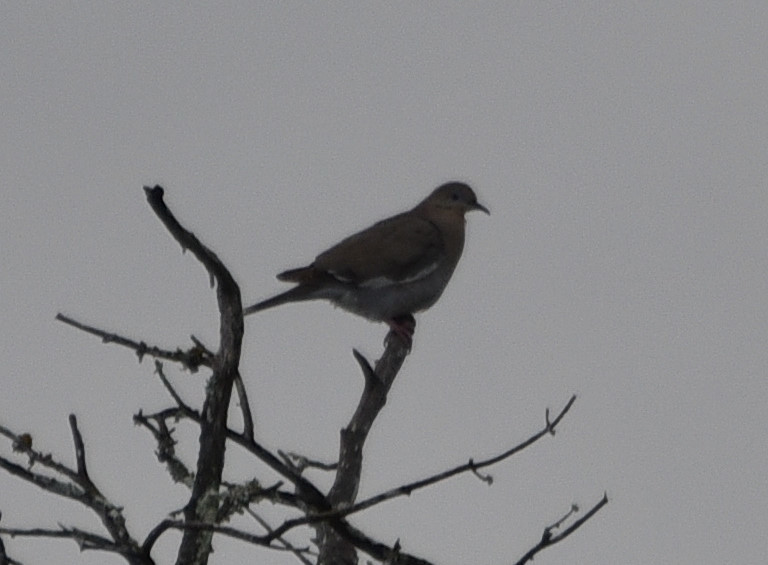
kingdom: Animalia
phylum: Chordata
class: Aves
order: Columbiformes
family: Columbidae
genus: Zenaida
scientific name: Zenaida asiatica
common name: White-winged dove
